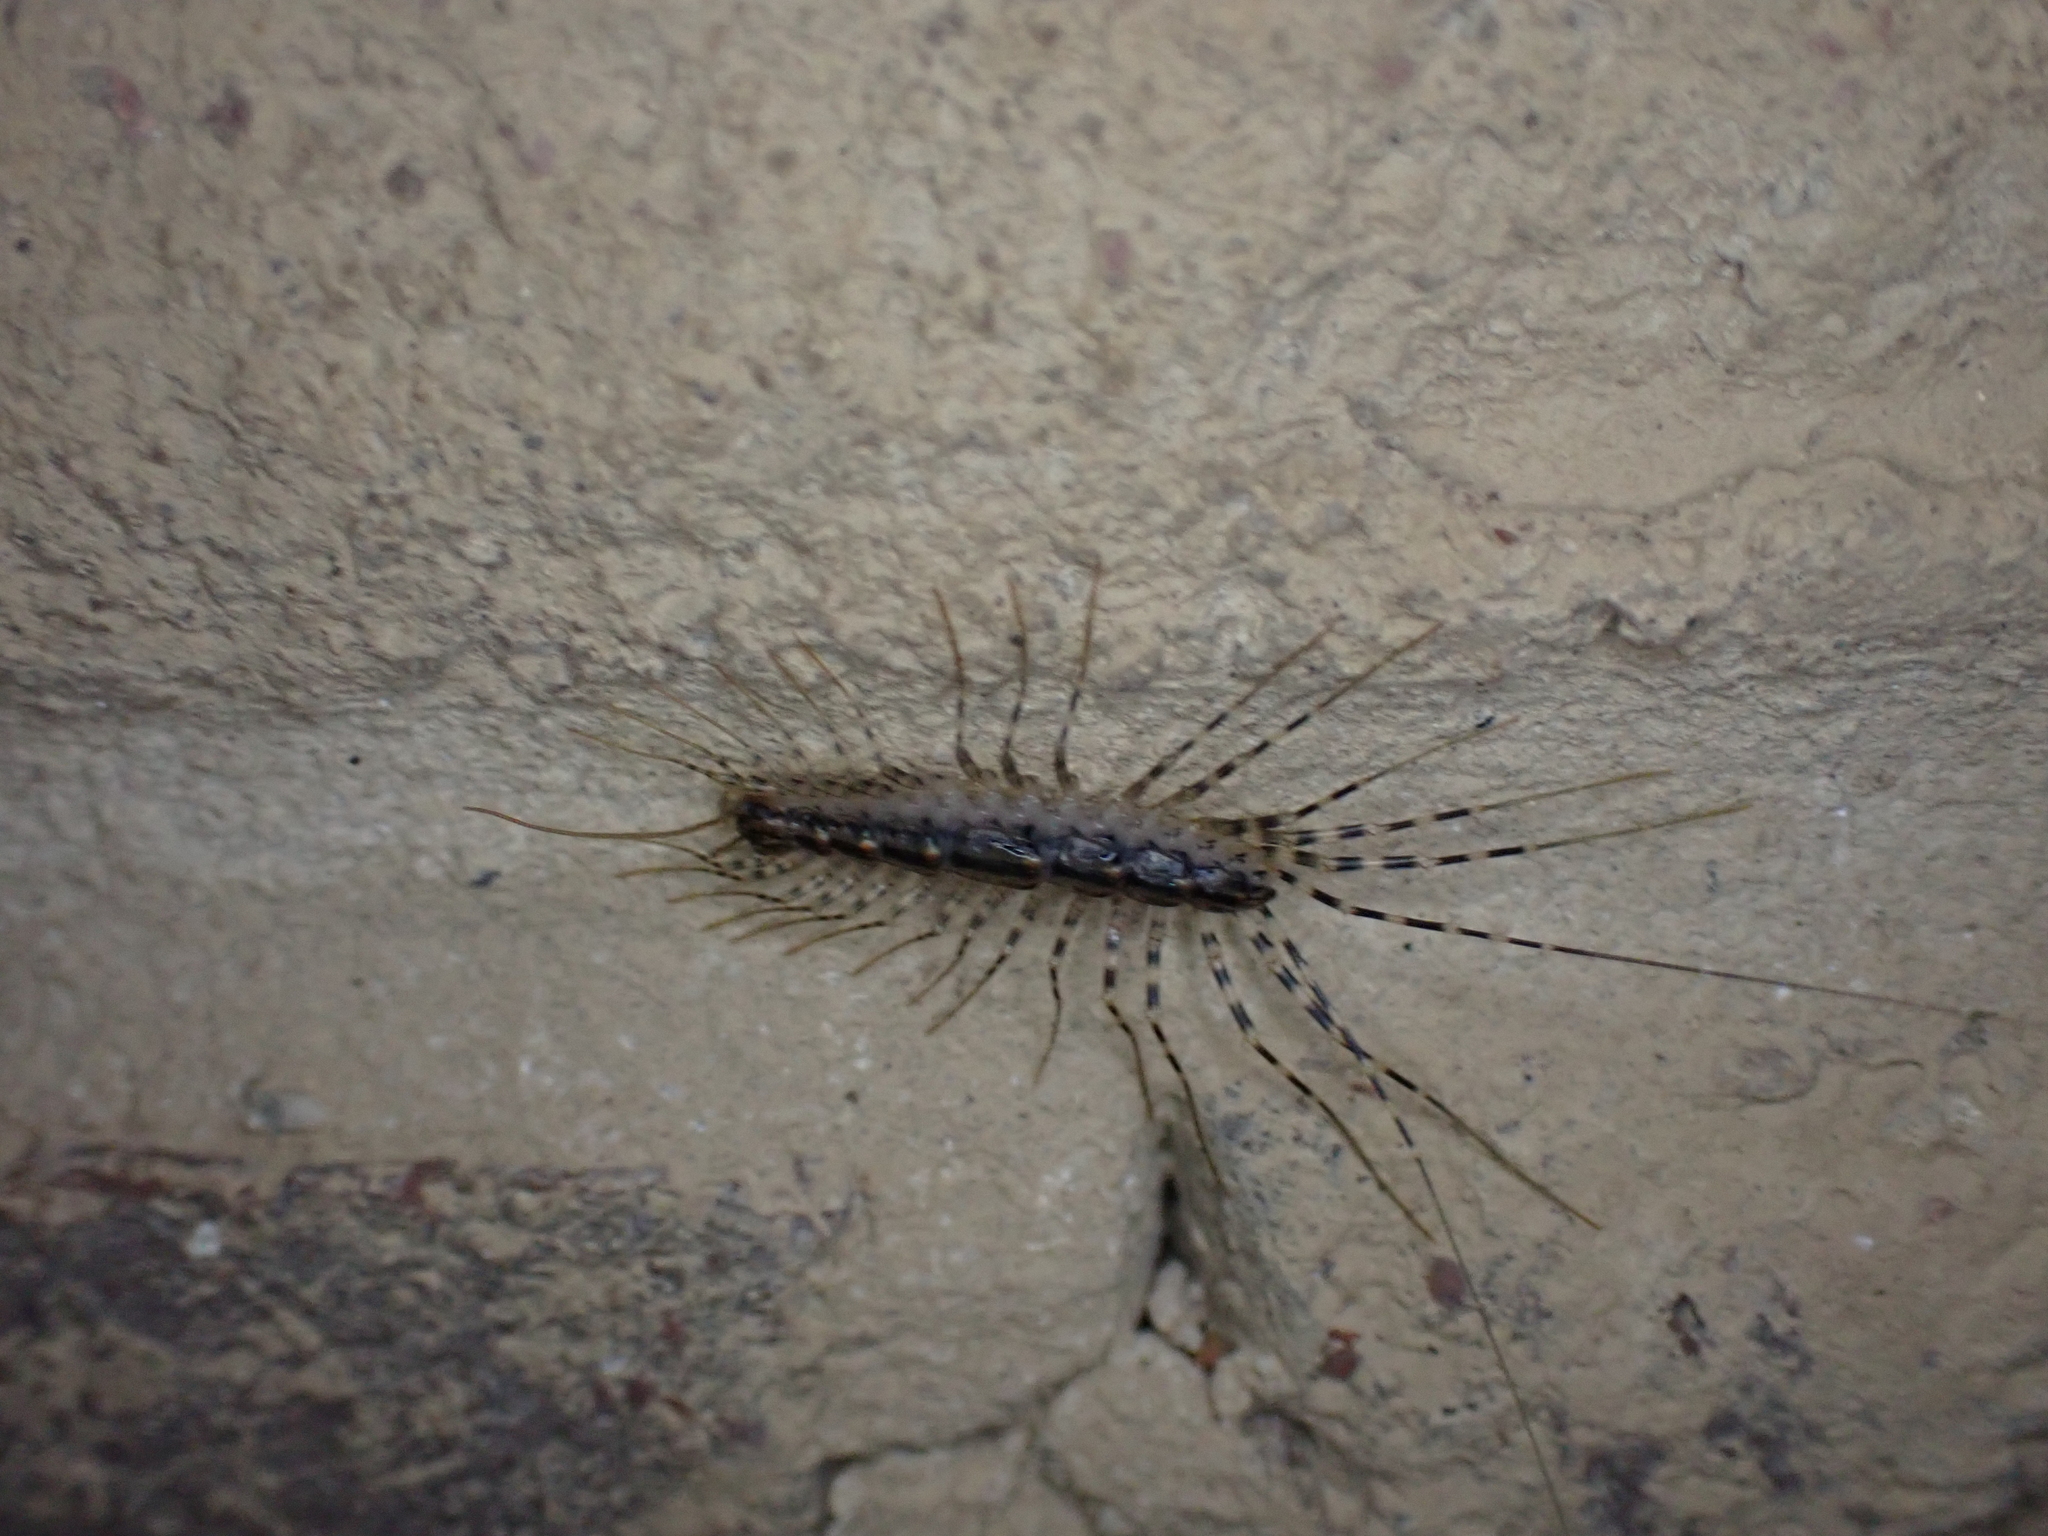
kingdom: Animalia
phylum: Arthropoda
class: Chilopoda
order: Scutigeromorpha
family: Scutigeridae
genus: Scutigera
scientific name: Scutigera coleoptrata
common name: House centipede
